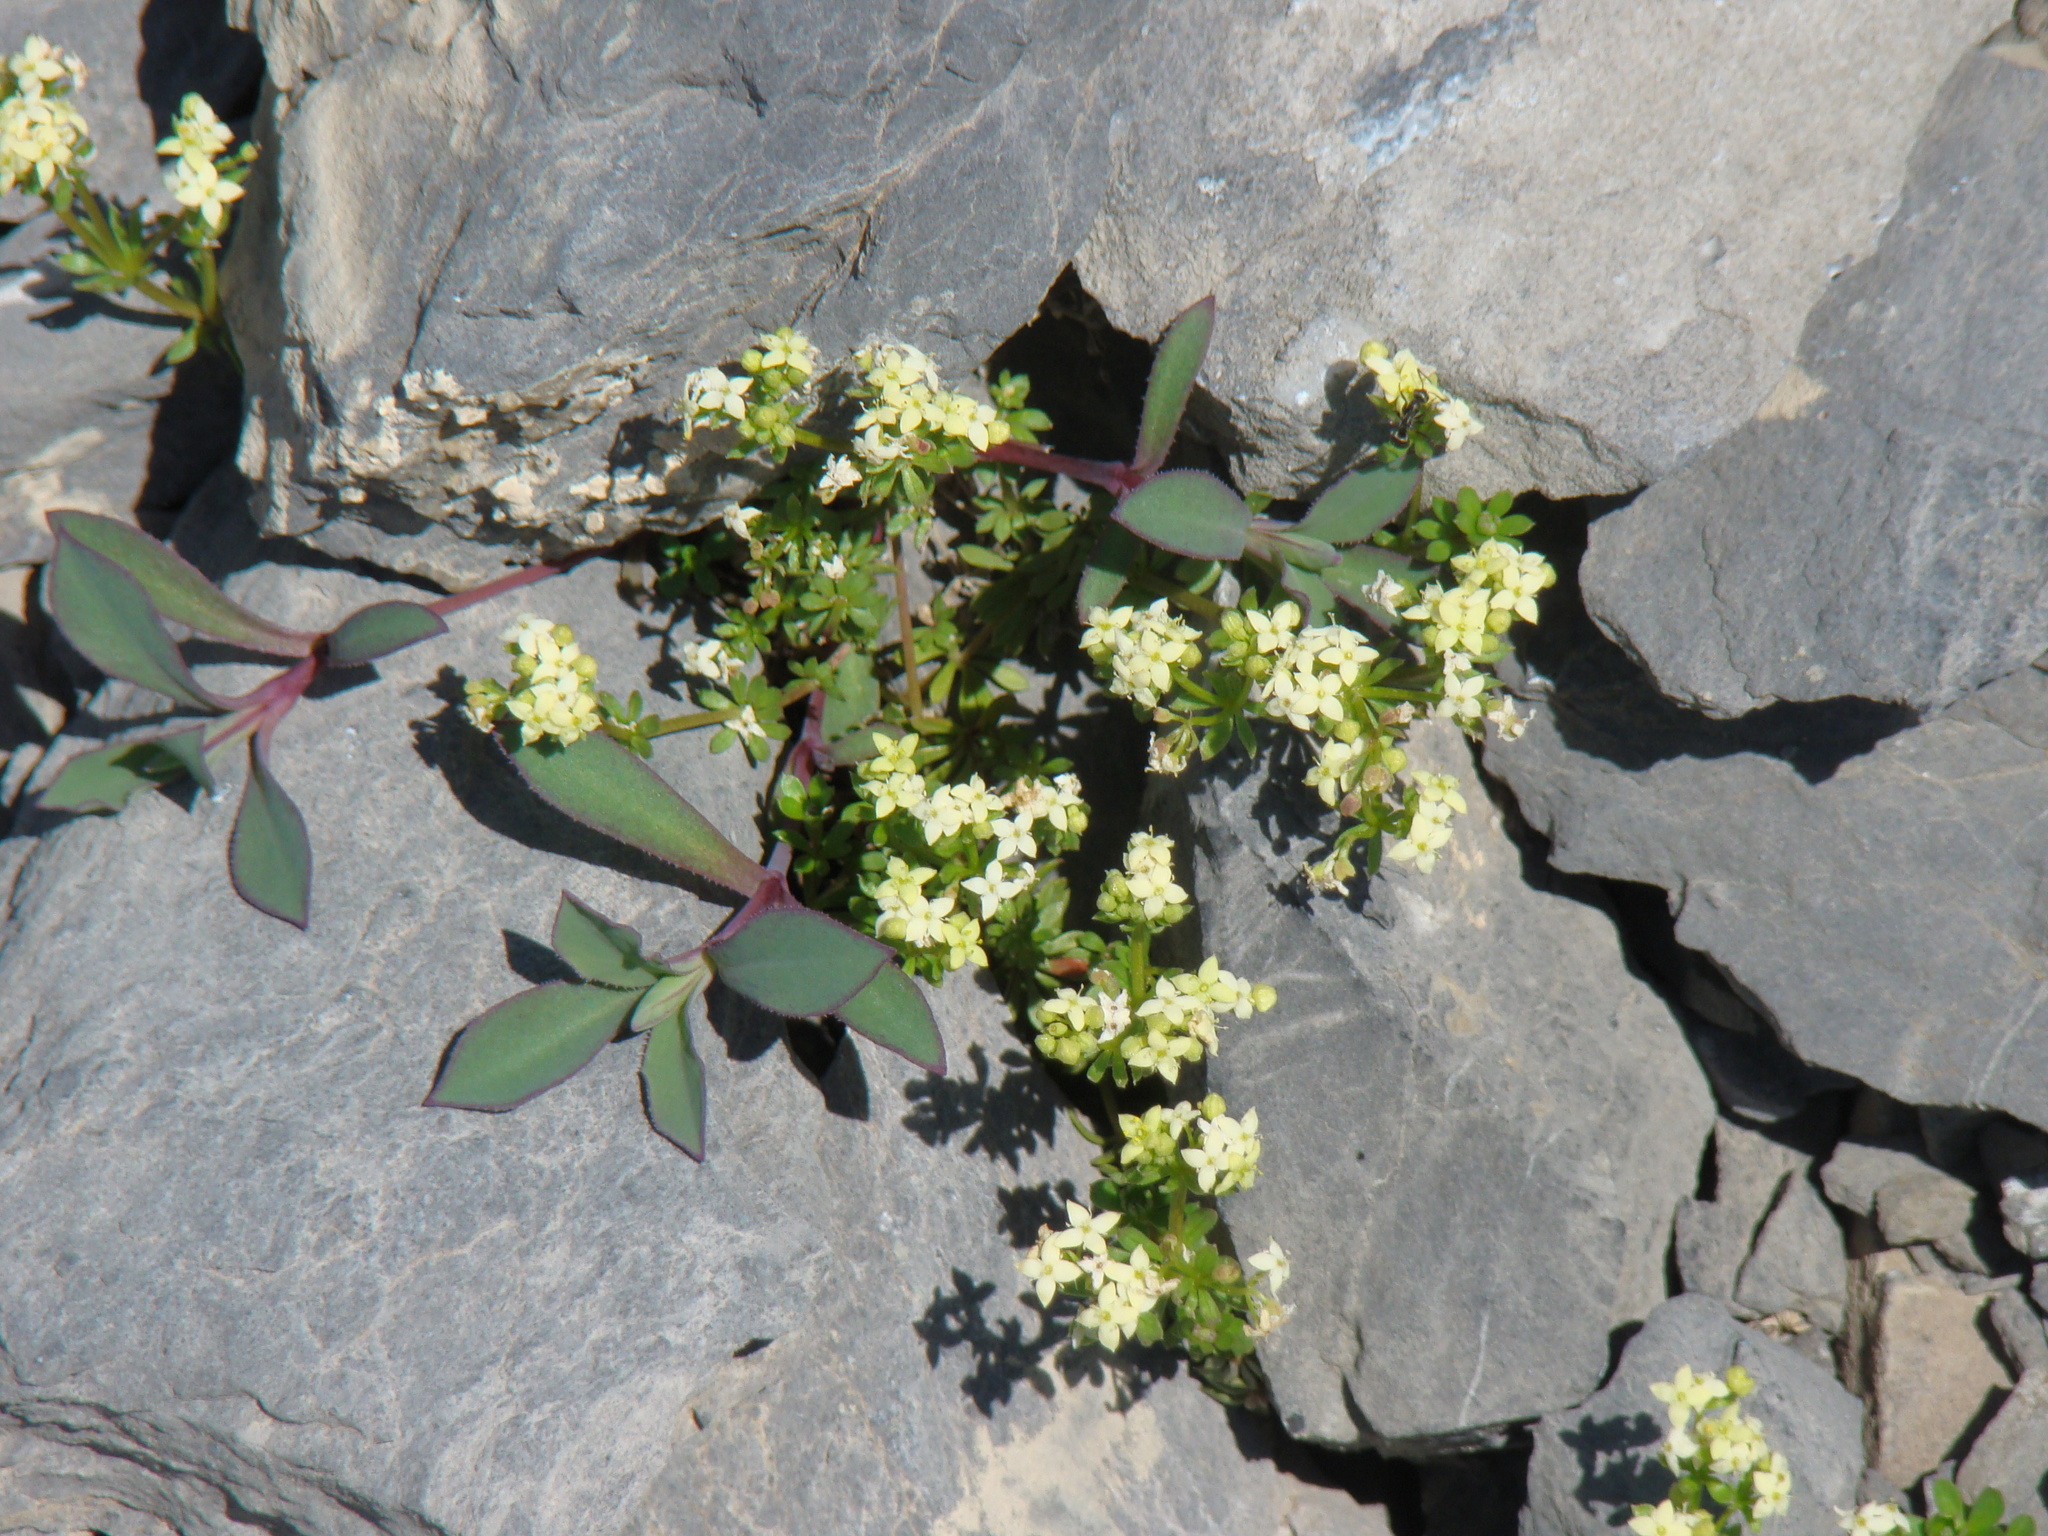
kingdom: Plantae
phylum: Tracheophyta
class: Magnoliopsida
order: Gentianales
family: Rubiaceae
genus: Galium
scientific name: Galium megalospermum
